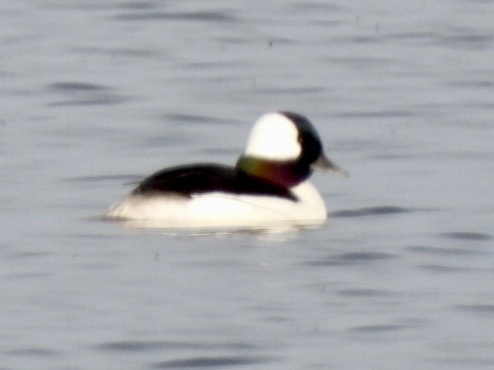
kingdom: Animalia
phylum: Chordata
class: Aves
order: Anseriformes
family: Anatidae
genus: Bucephala
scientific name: Bucephala albeola
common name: Bufflehead
